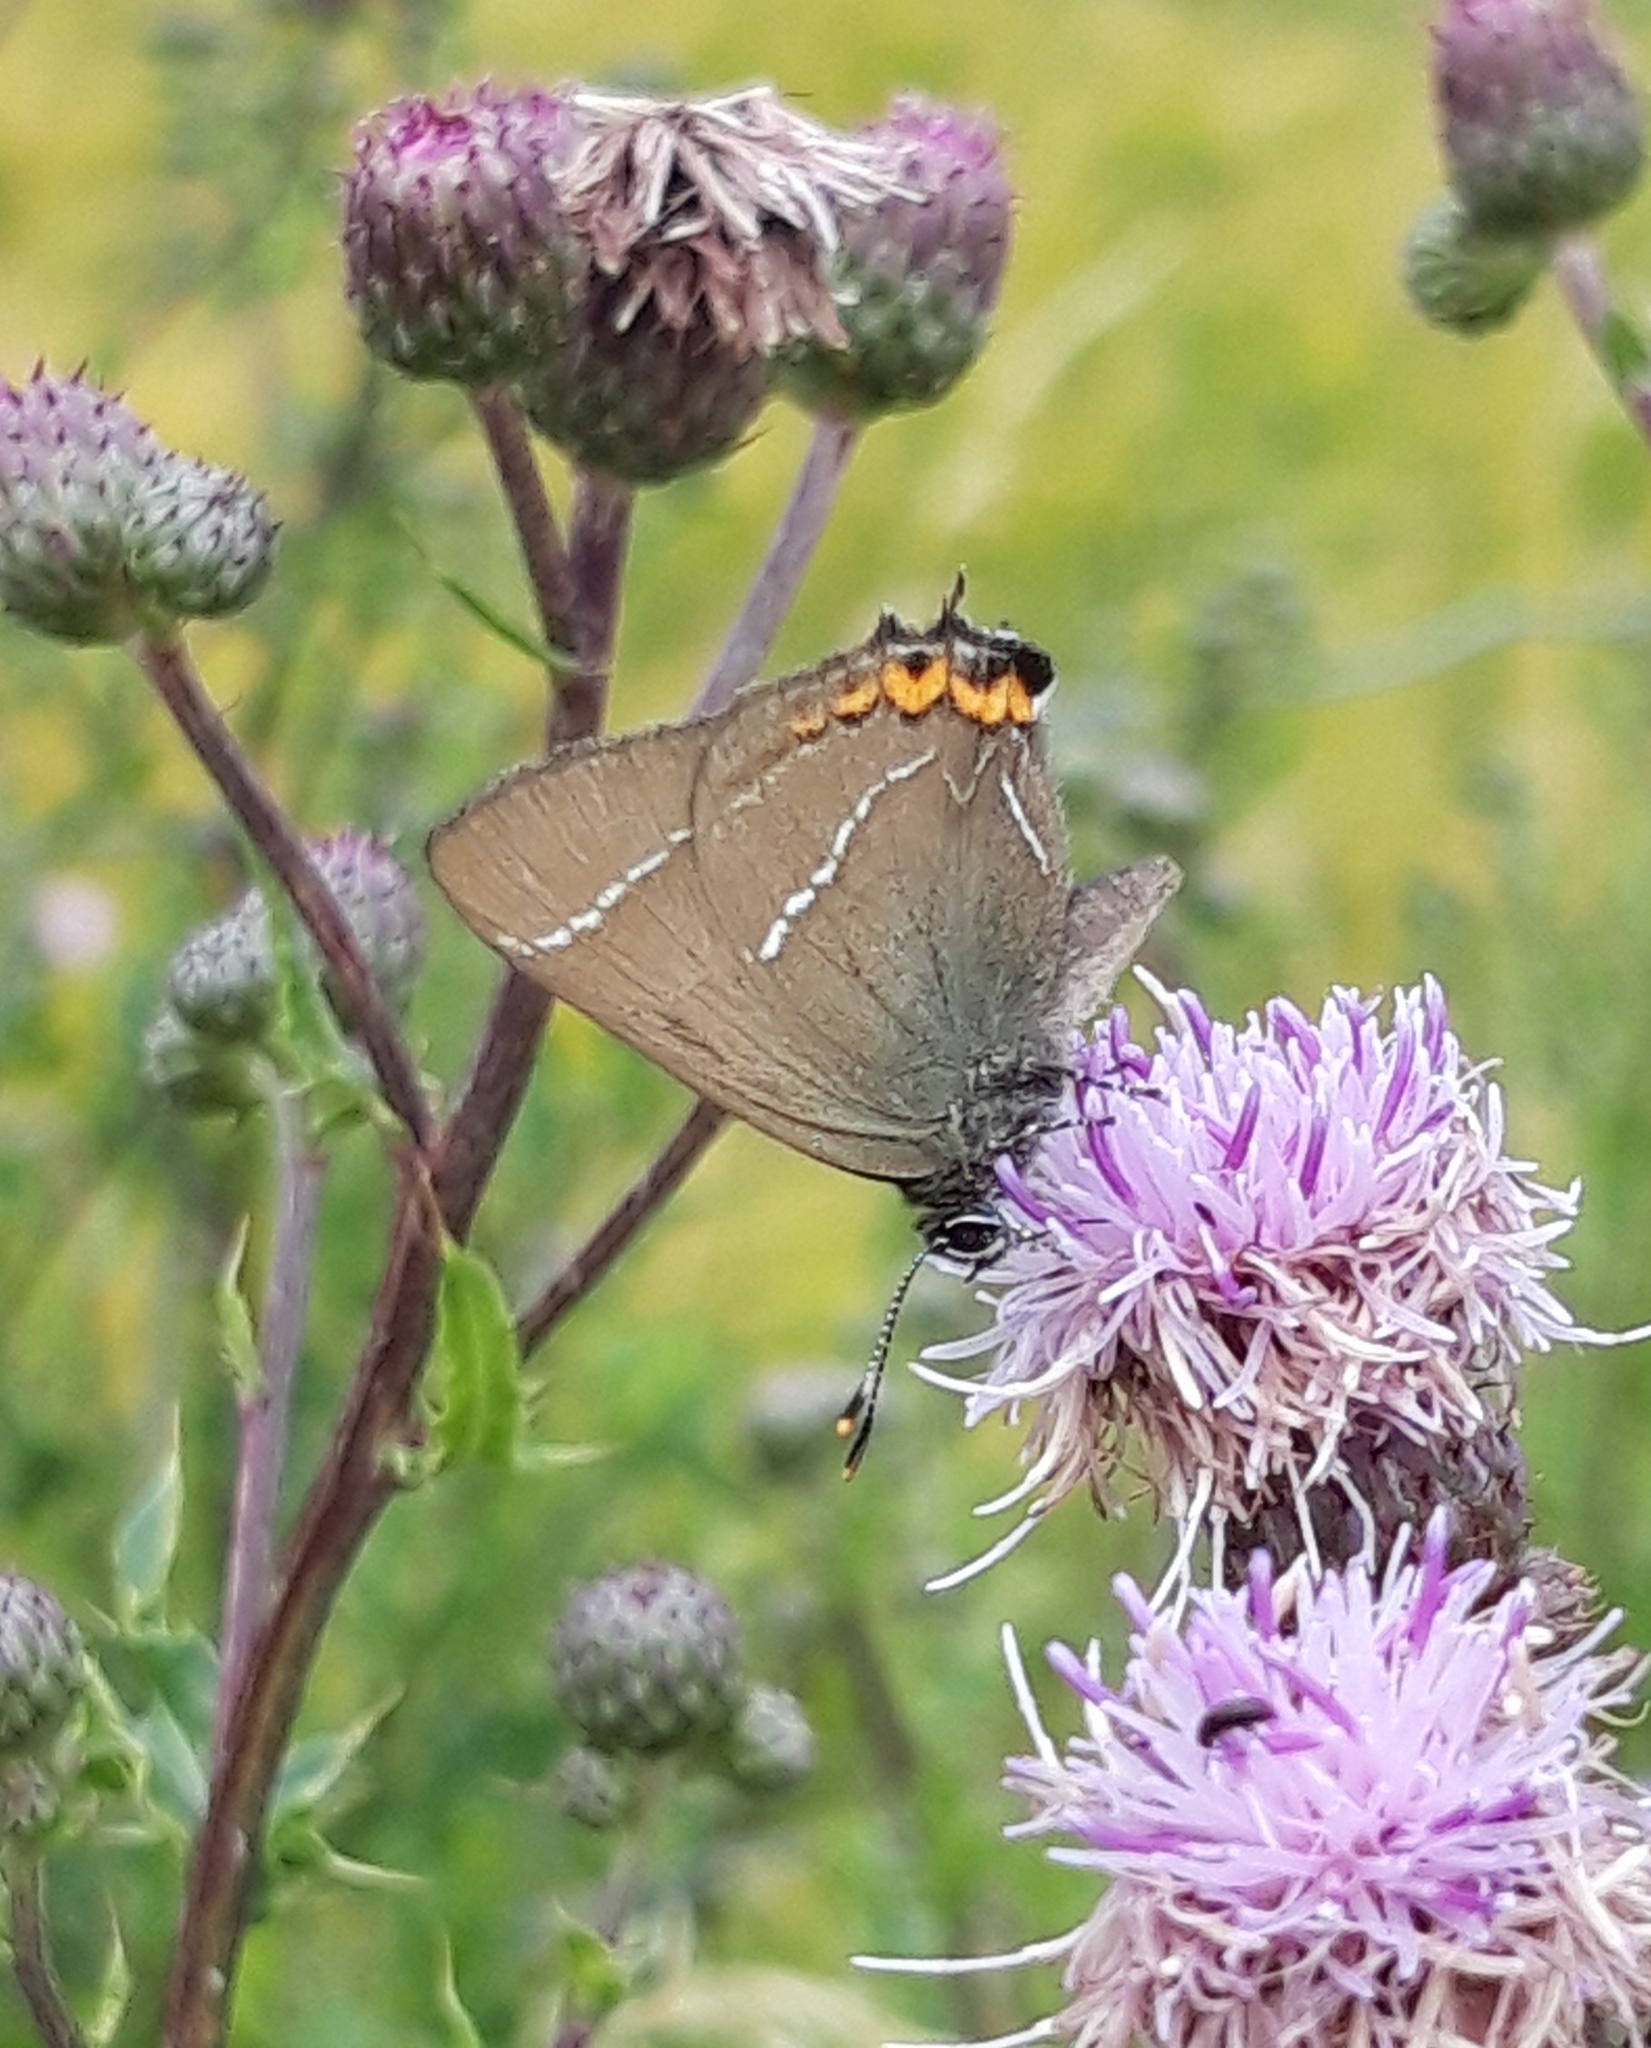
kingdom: Animalia
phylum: Arthropoda
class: Insecta
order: Lepidoptera
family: Lycaenidae
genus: Satyrium
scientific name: Satyrium w-album
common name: White-letter hairstreak
